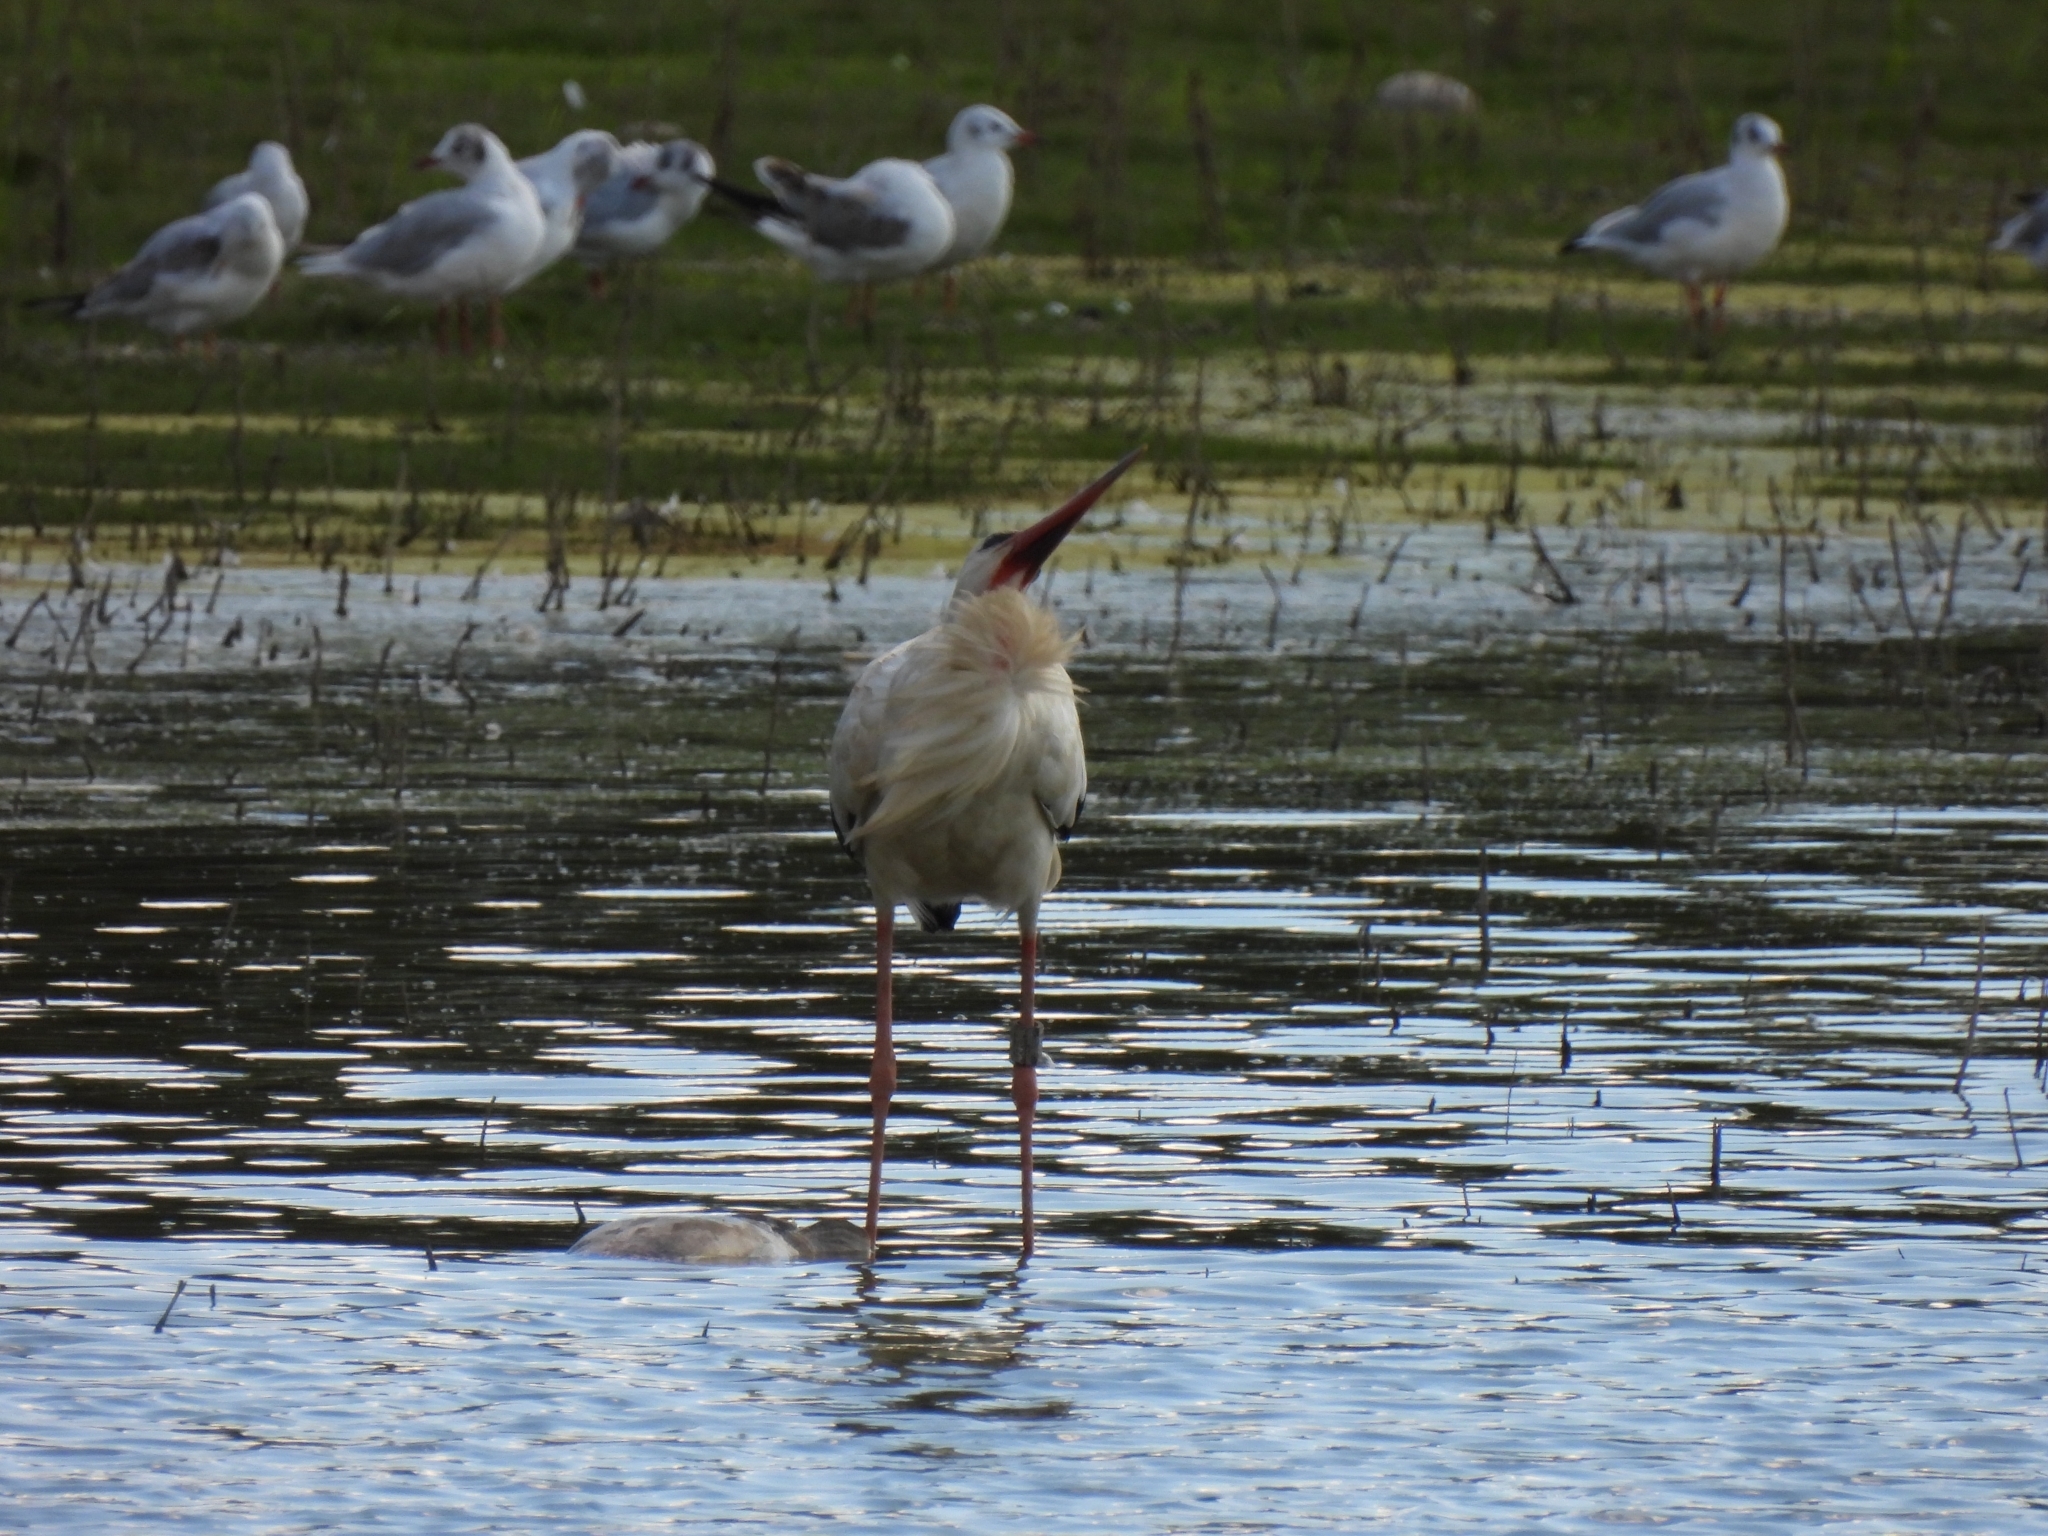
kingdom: Animalia
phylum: Chordata
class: Aves
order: Ciconiiformes
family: Ciconiidae
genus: Ciconia
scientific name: Ciconia ciconia
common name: White stork
